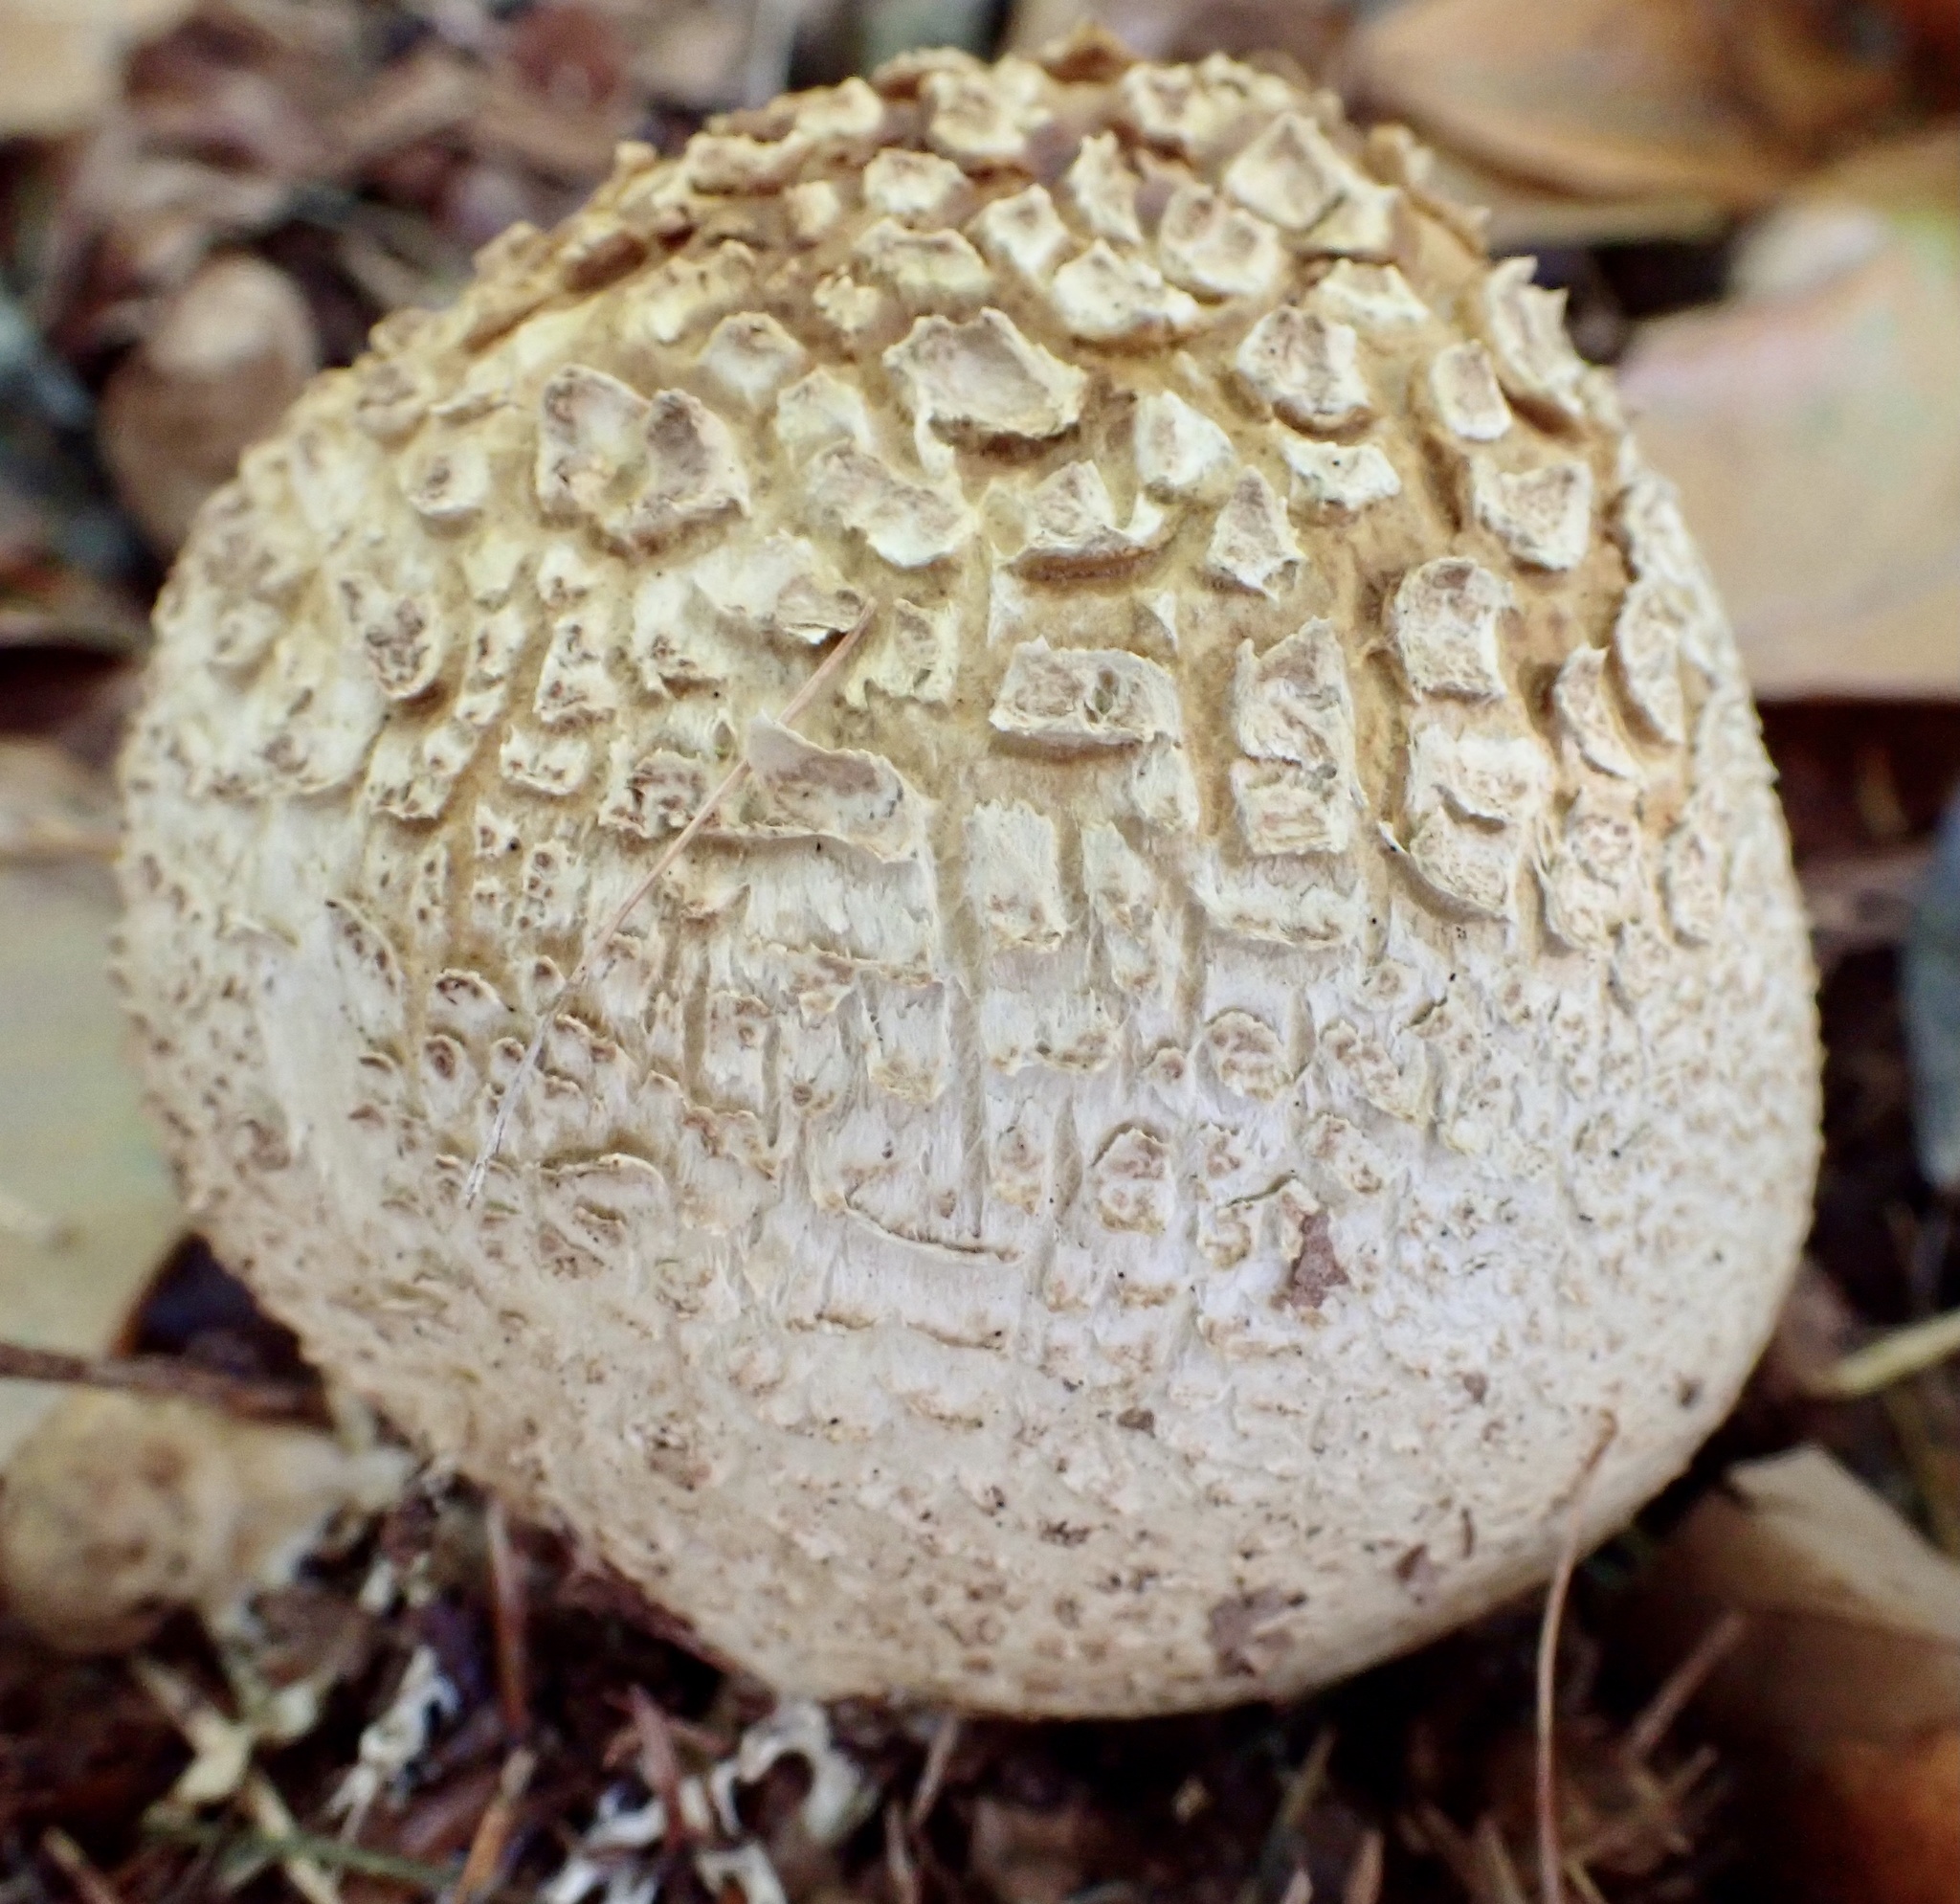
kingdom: Fungi
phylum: Basidiomycota
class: Agaricomycetes
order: Boletales
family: Sclerodermataceae
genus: Scleroderma
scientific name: Scleroderma citrinum
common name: Common earthball
